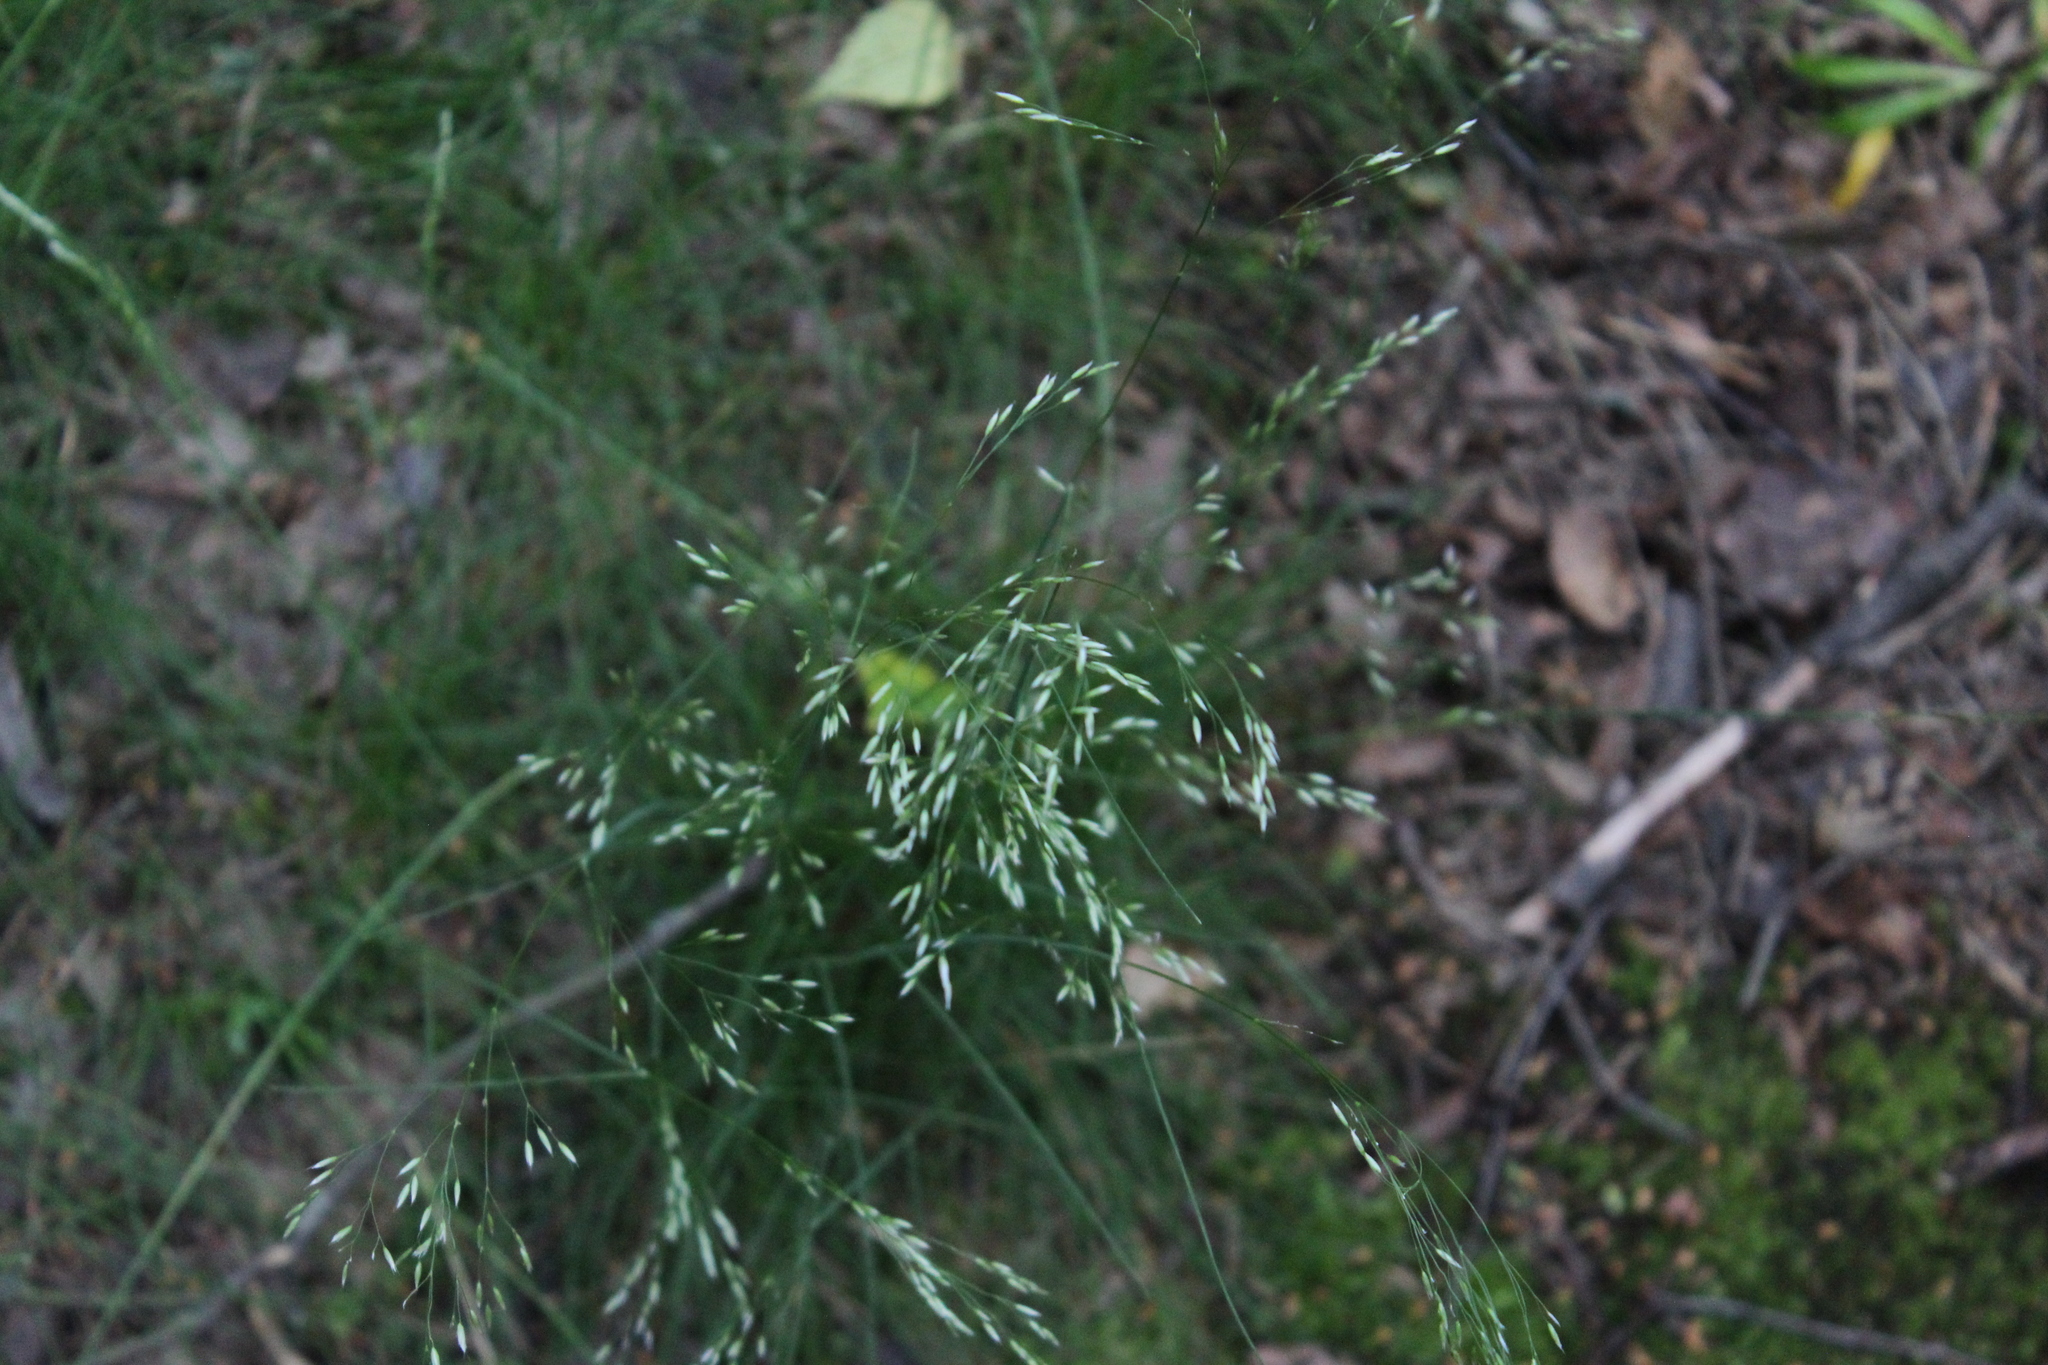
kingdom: Plantae
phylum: Tracheophyta
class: Liliopsida
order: Poales
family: Poaceae
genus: Avenella
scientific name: Avenella flexuosa
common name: Wavy hairgrass
